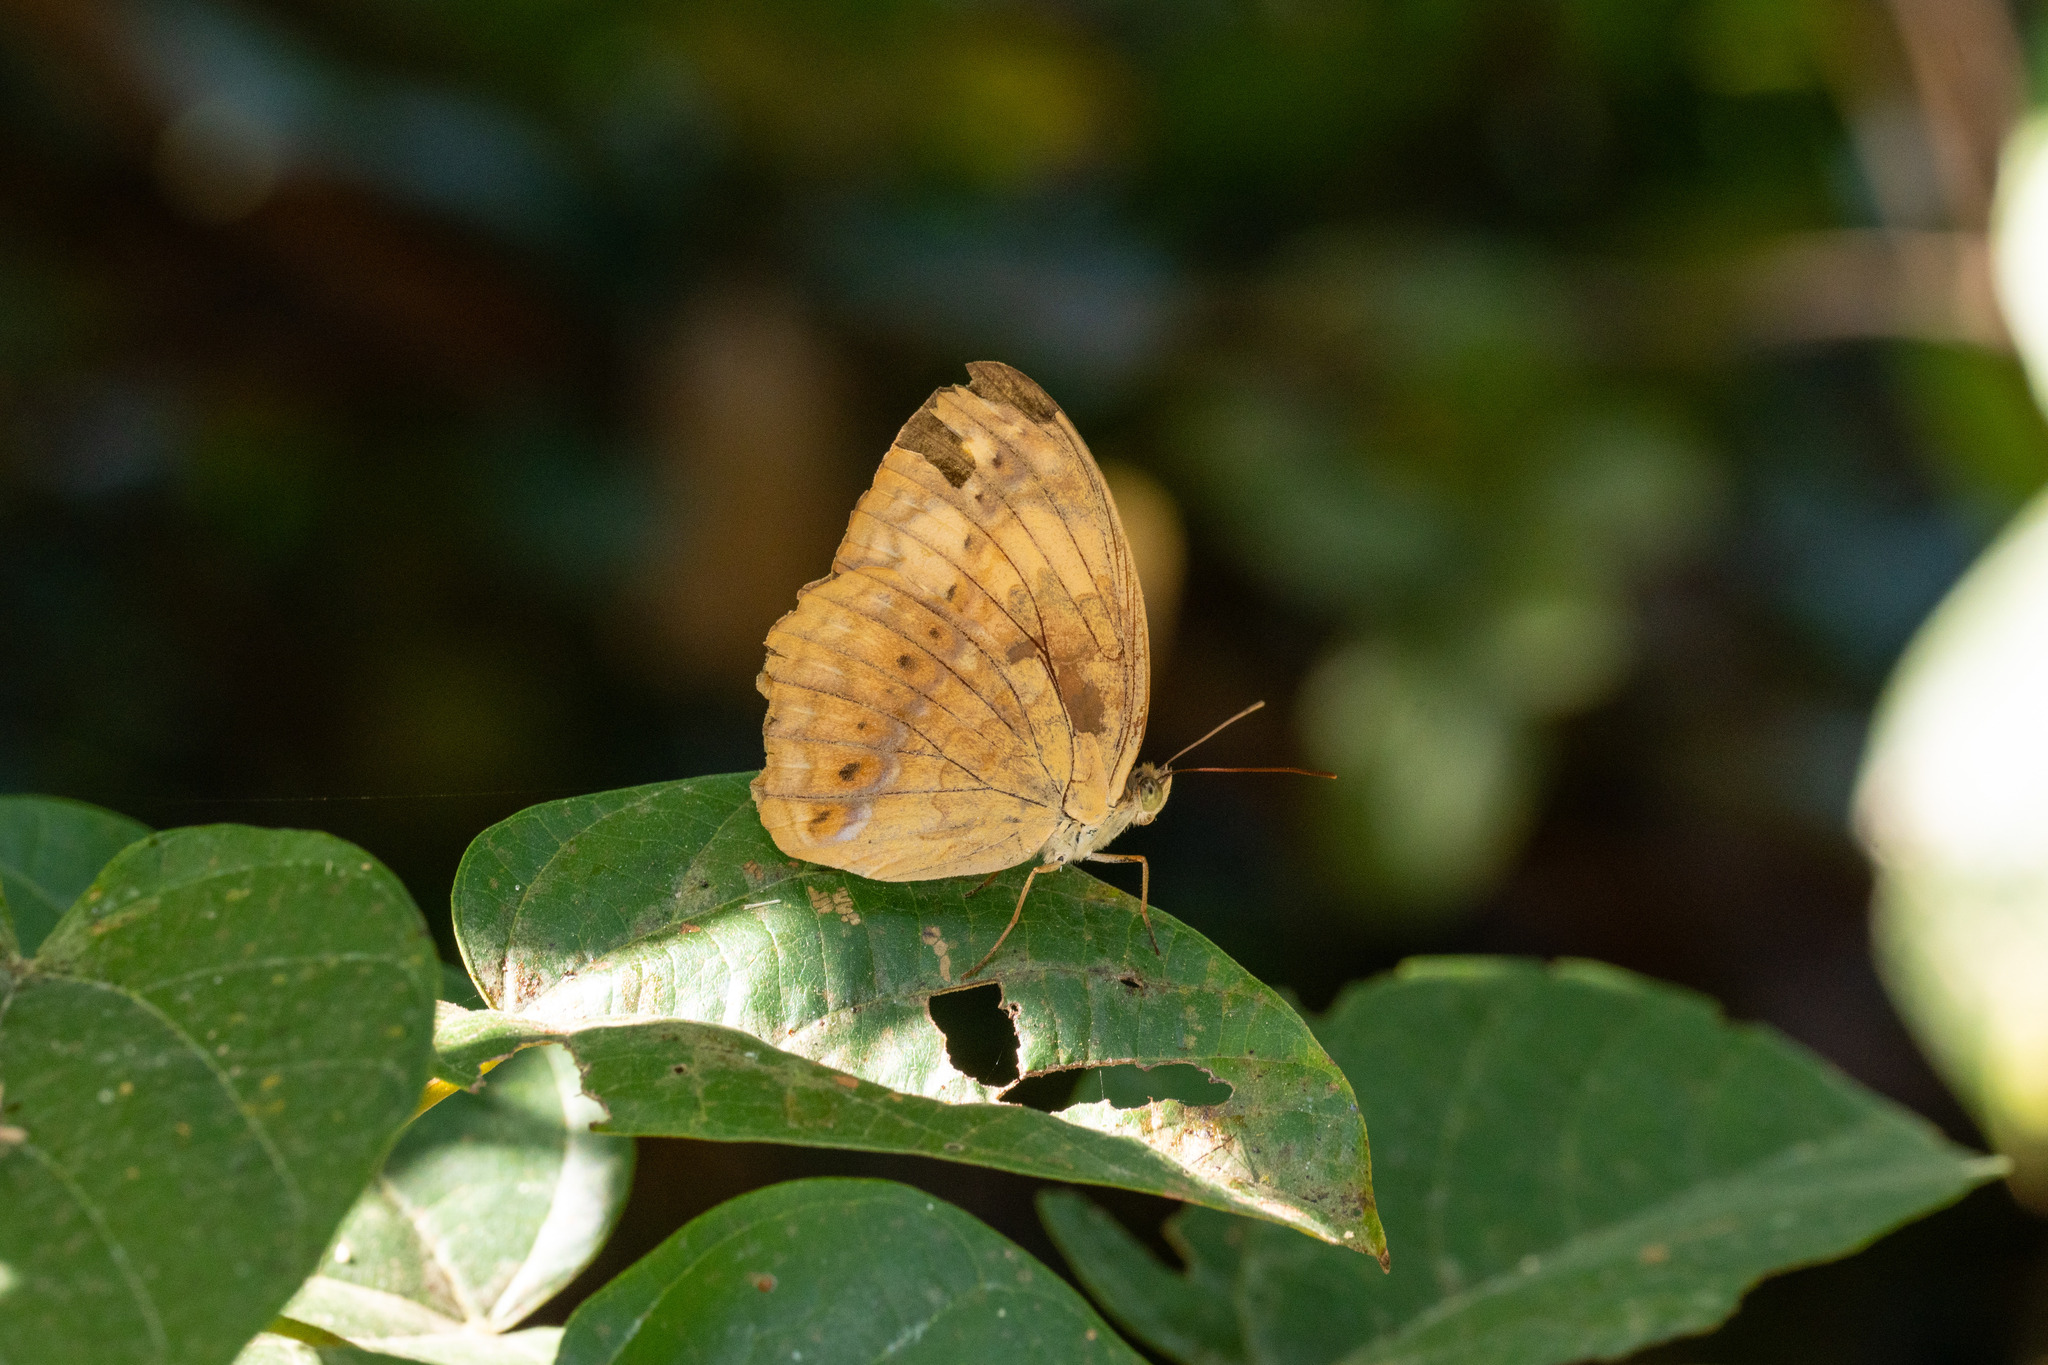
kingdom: Animalia
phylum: Arthropoda
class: Insecta
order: Lepidoptera
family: Nymphalidae
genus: Cupha
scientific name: Cupha erymanthis
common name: Rustic
